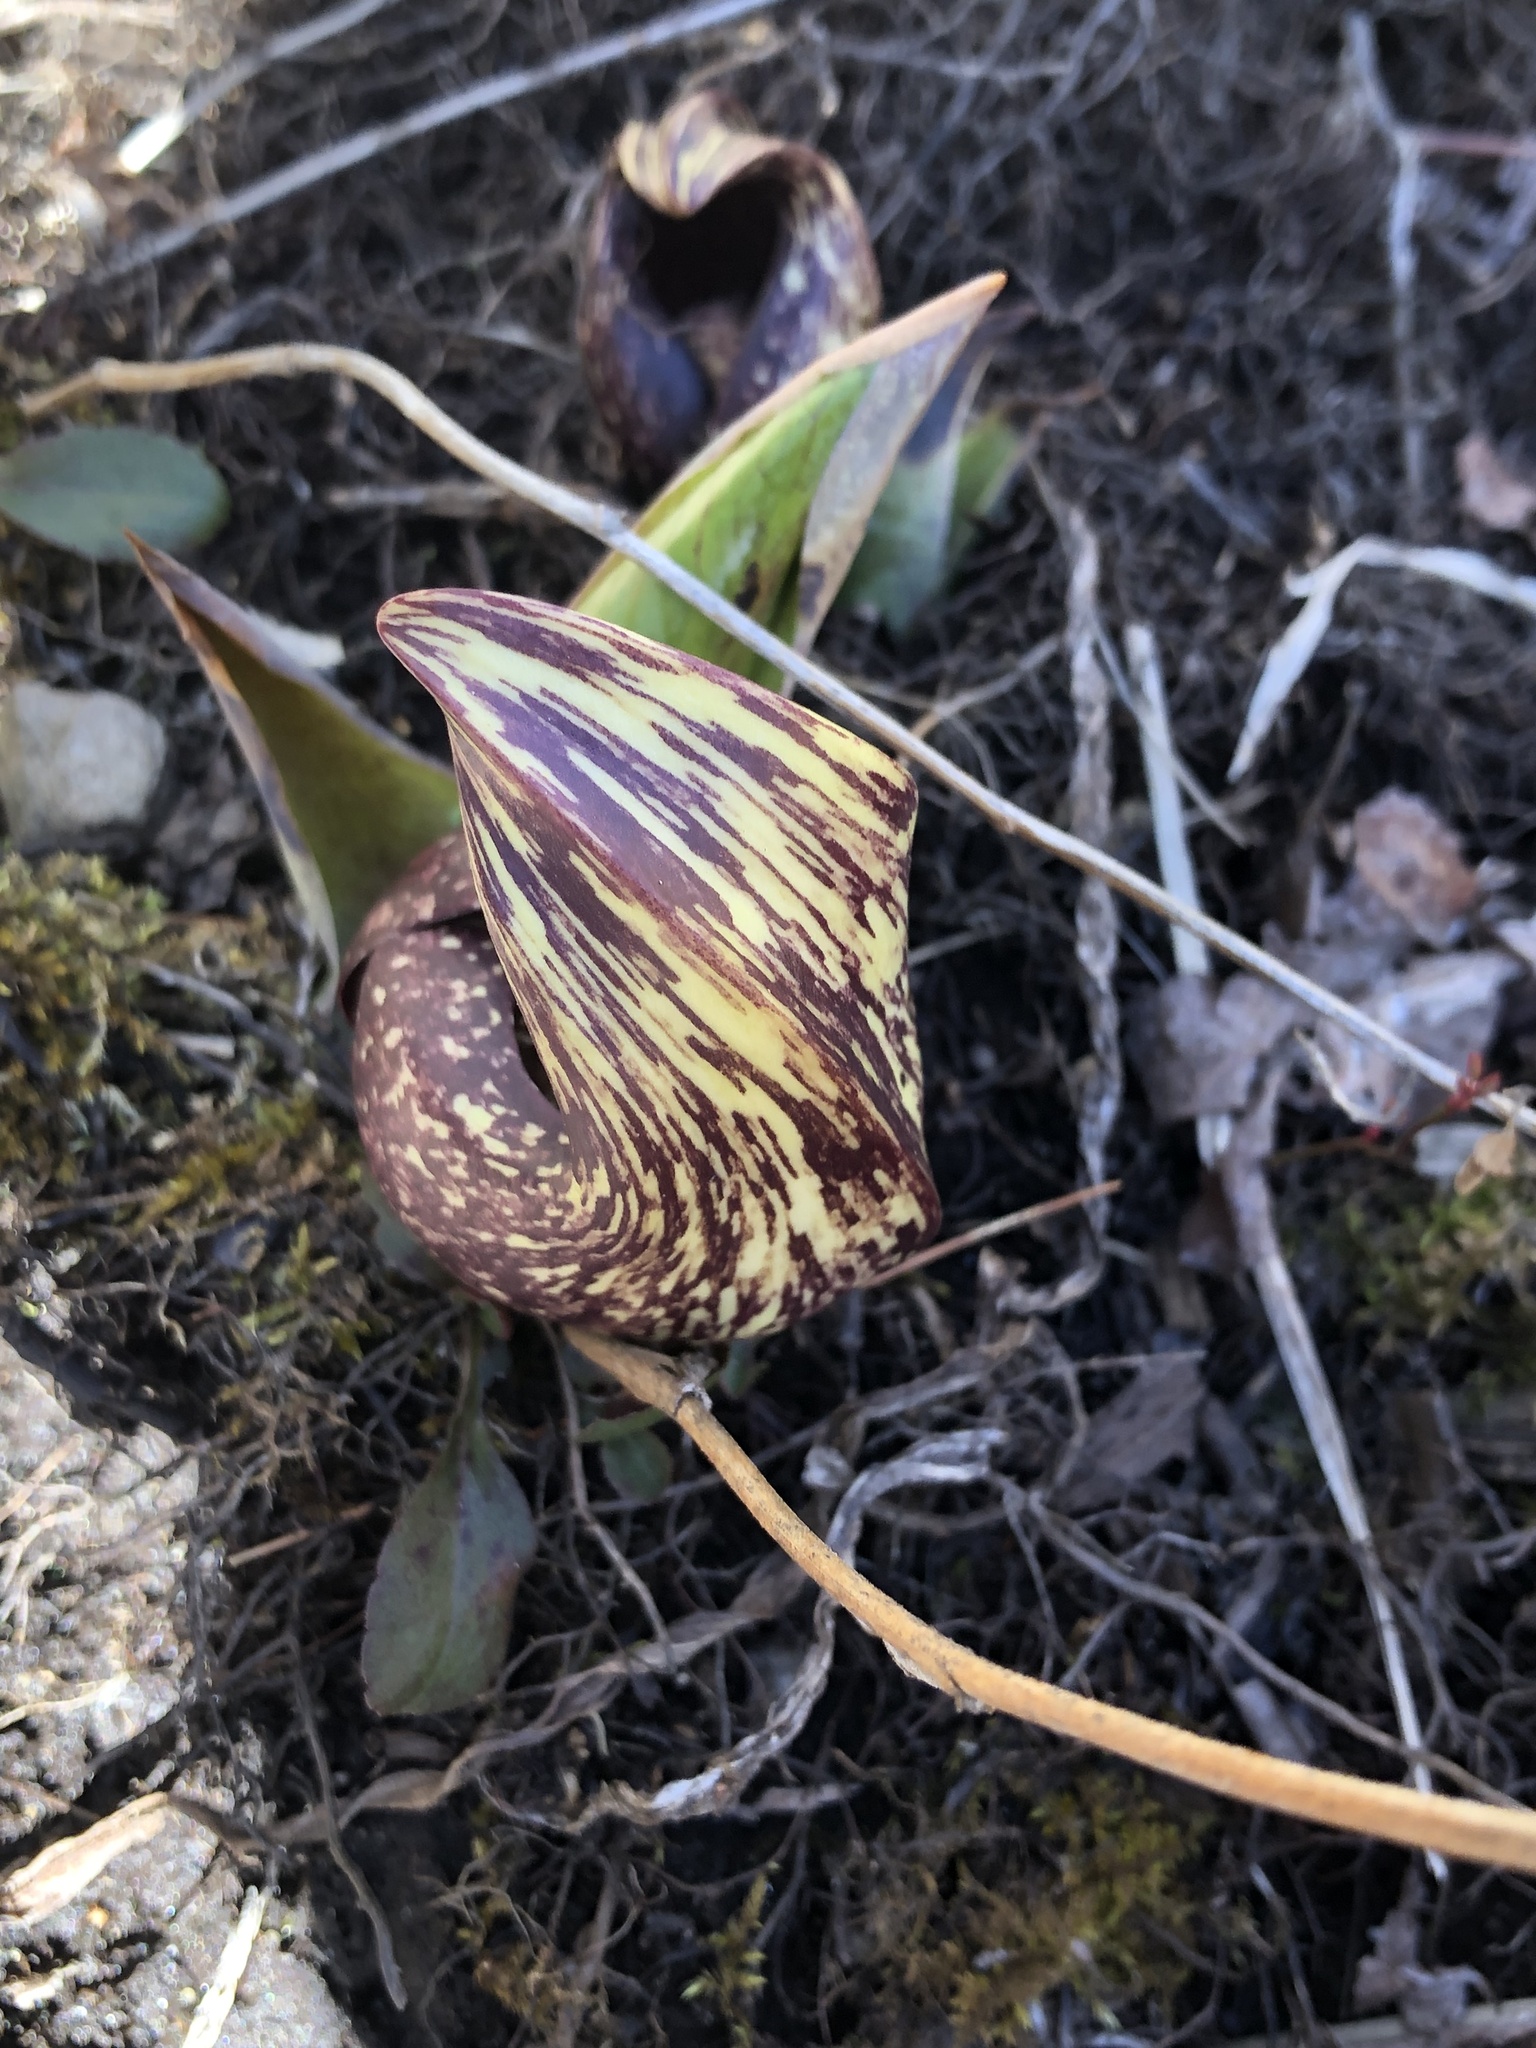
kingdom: Plantae
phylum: Tracheophyta
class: Liliopsida
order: Alismatales
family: Araceae
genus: Symplocarpus
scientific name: Symplocarpus foetidus
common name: Eastern skunk cabbage
